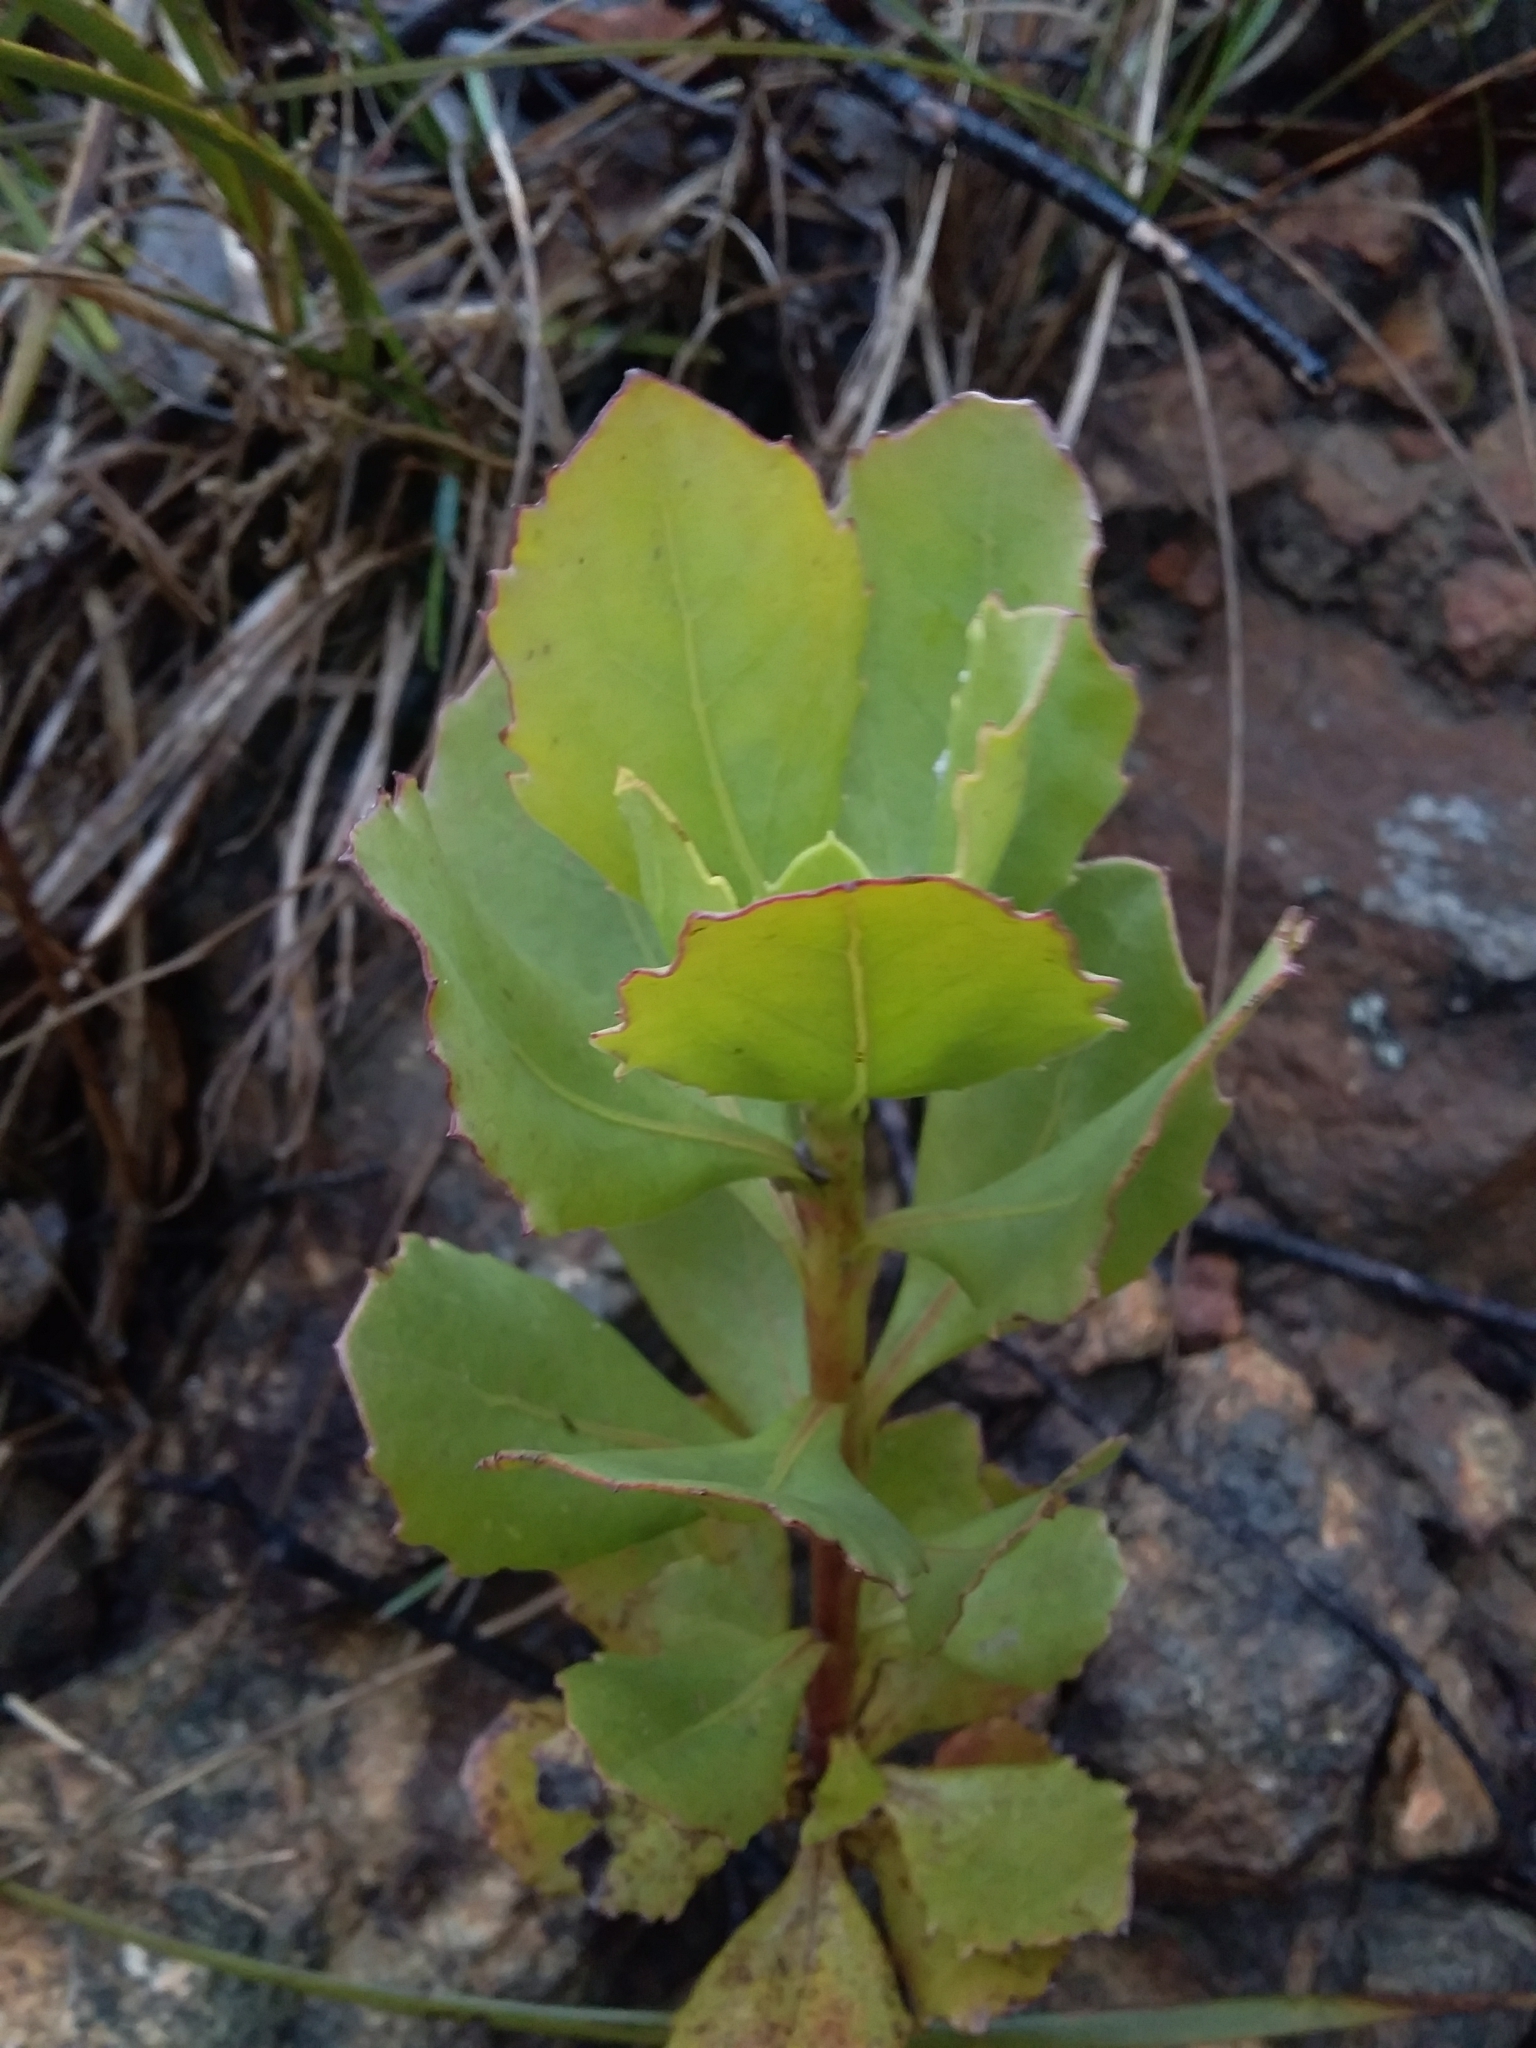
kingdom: Plantae
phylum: Tracheophyta
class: Magnoliopsida
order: Asterales
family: Asteraceae
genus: Osteospermum
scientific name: Osteospermum moniliferum
